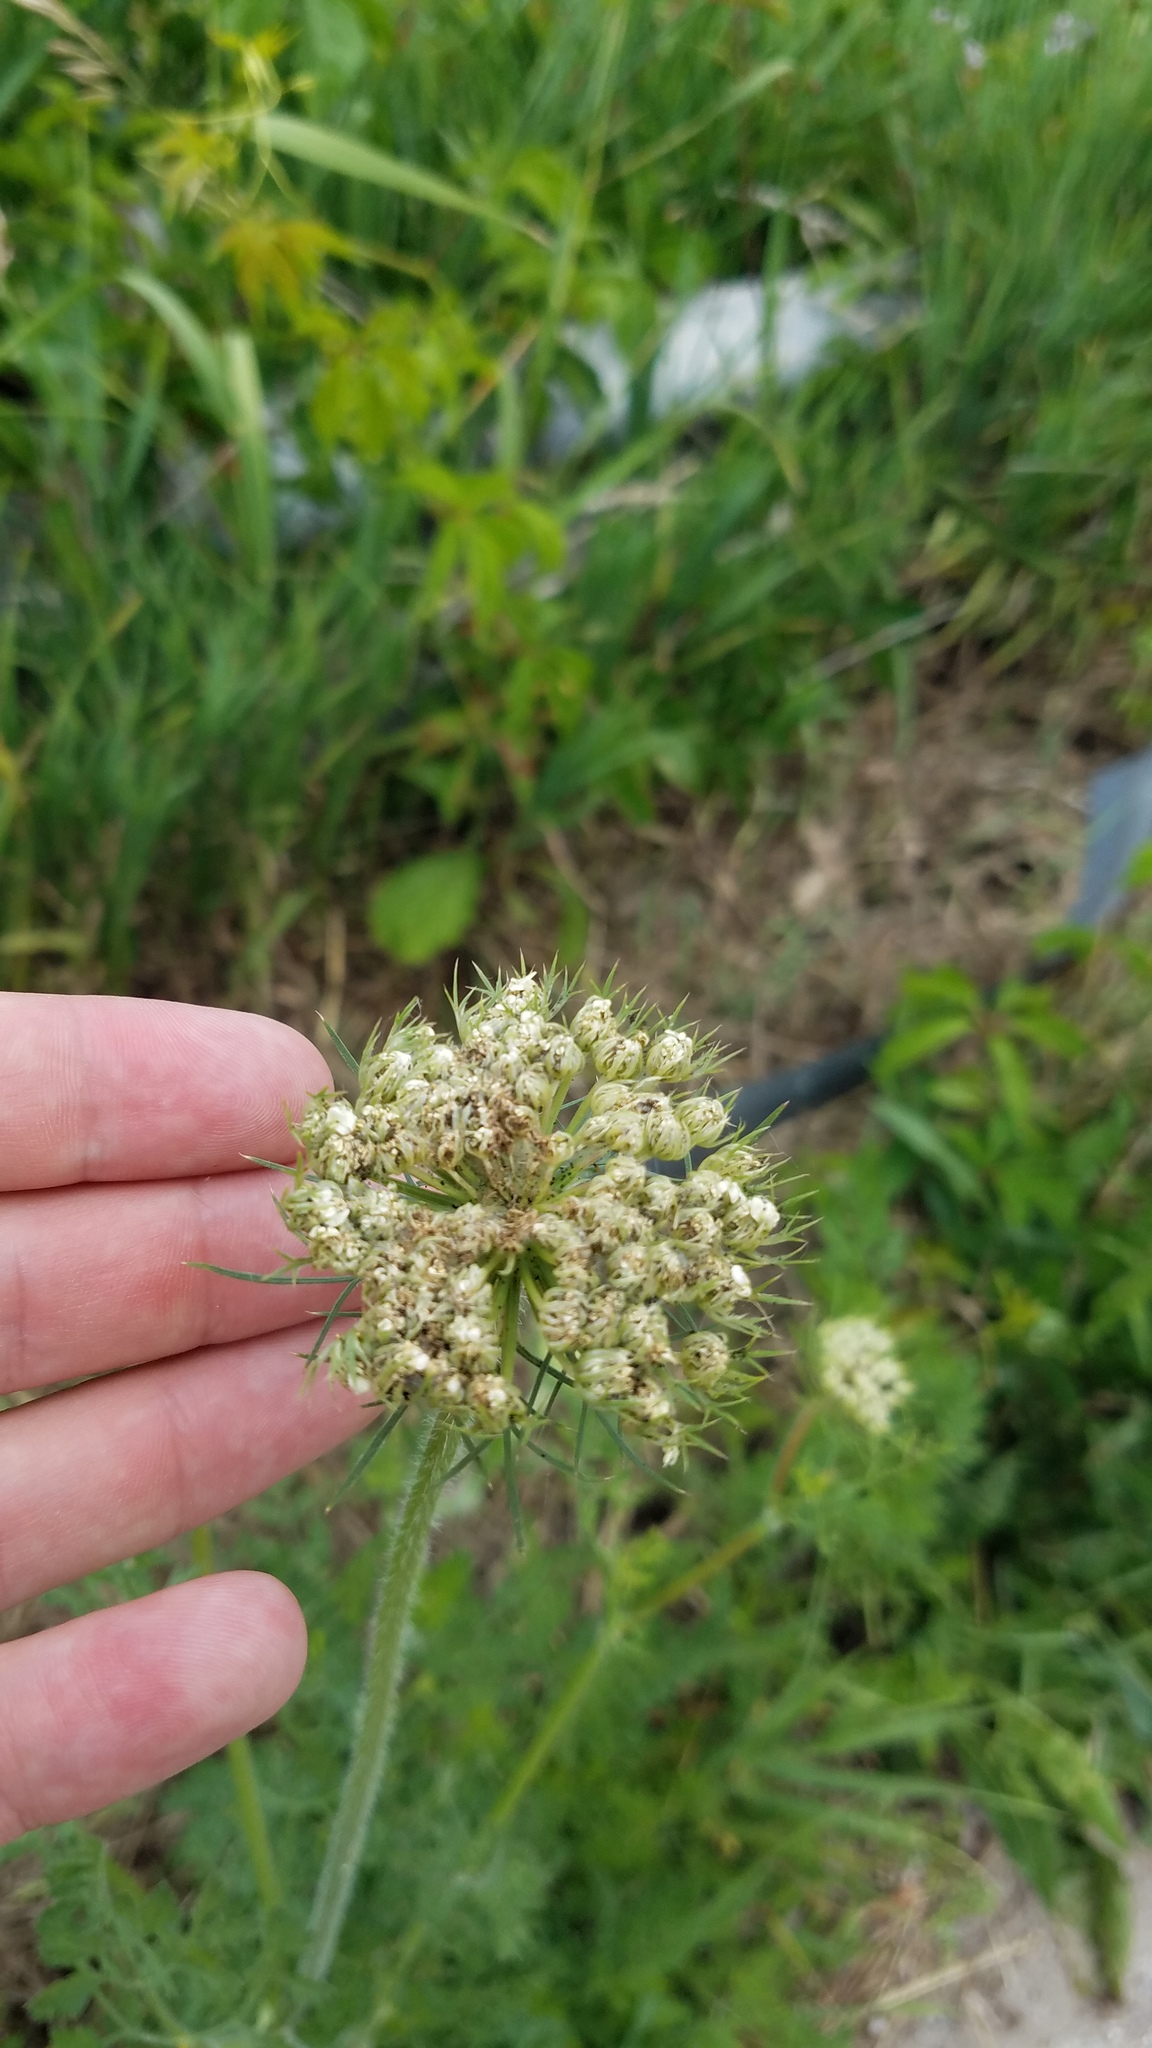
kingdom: Plantae
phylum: Tracheophyta
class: Magnoliopsida
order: Apiales
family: Apiaceae
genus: Daucus
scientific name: Daucus carota
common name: Wild carrot
